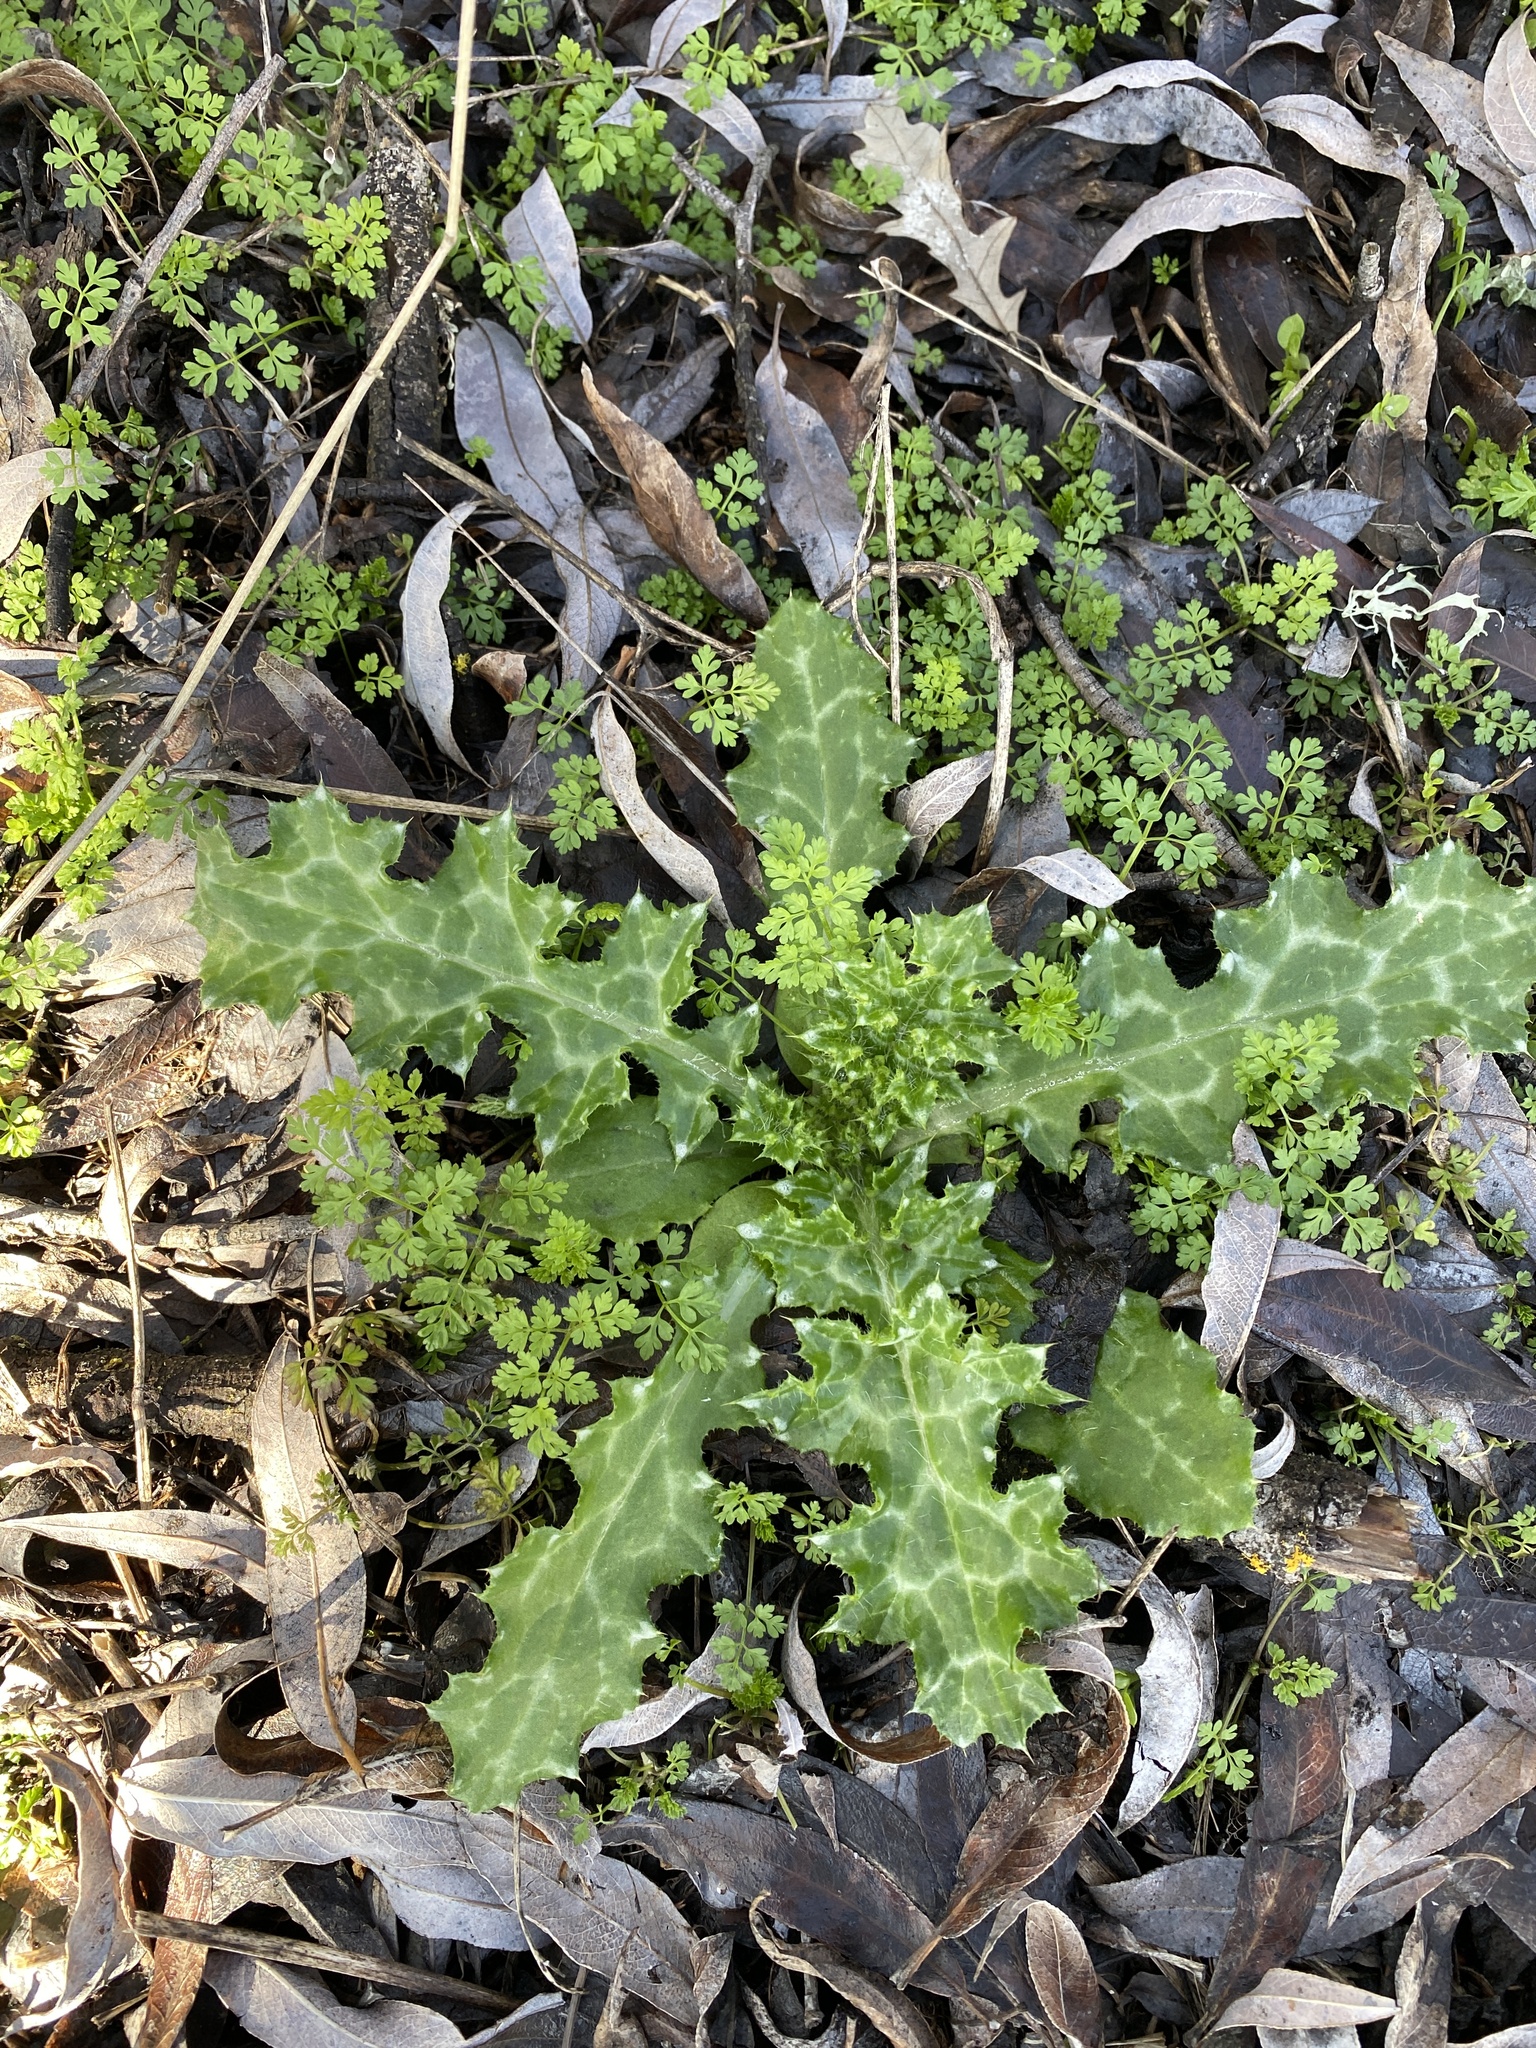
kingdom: Plantae
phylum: Tracheophyta
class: Magnoliopsida
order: Asterales
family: Asteraceae
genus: Carduus
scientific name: Carduus pycnocephalus
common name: Plymouth thistle
